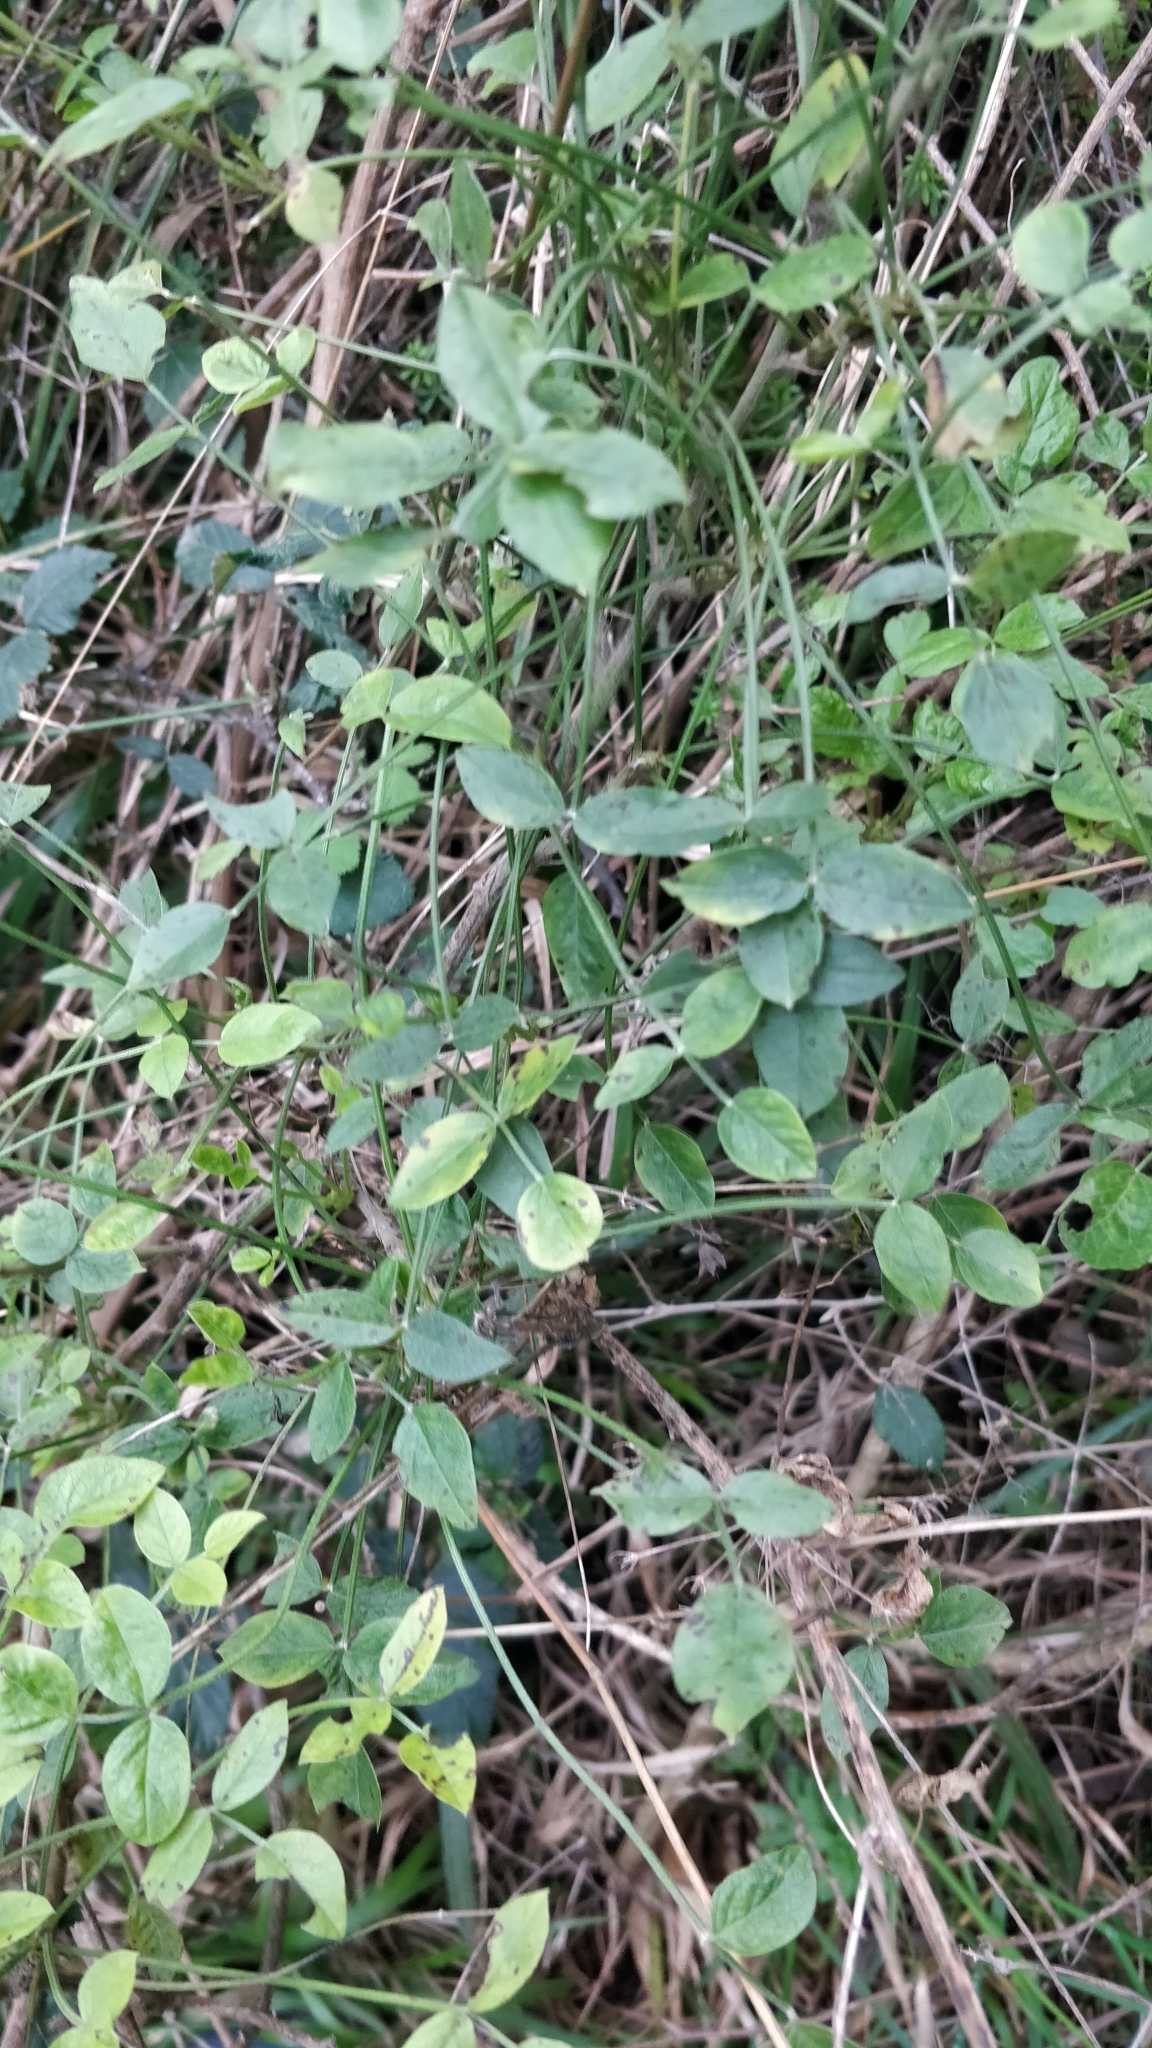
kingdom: Plantae
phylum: Tracheophyta
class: Magnoliopsida
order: Fabales
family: Fabaceae
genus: Bituminaria
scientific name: Bituminaria bituminosa
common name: Arabian pea
